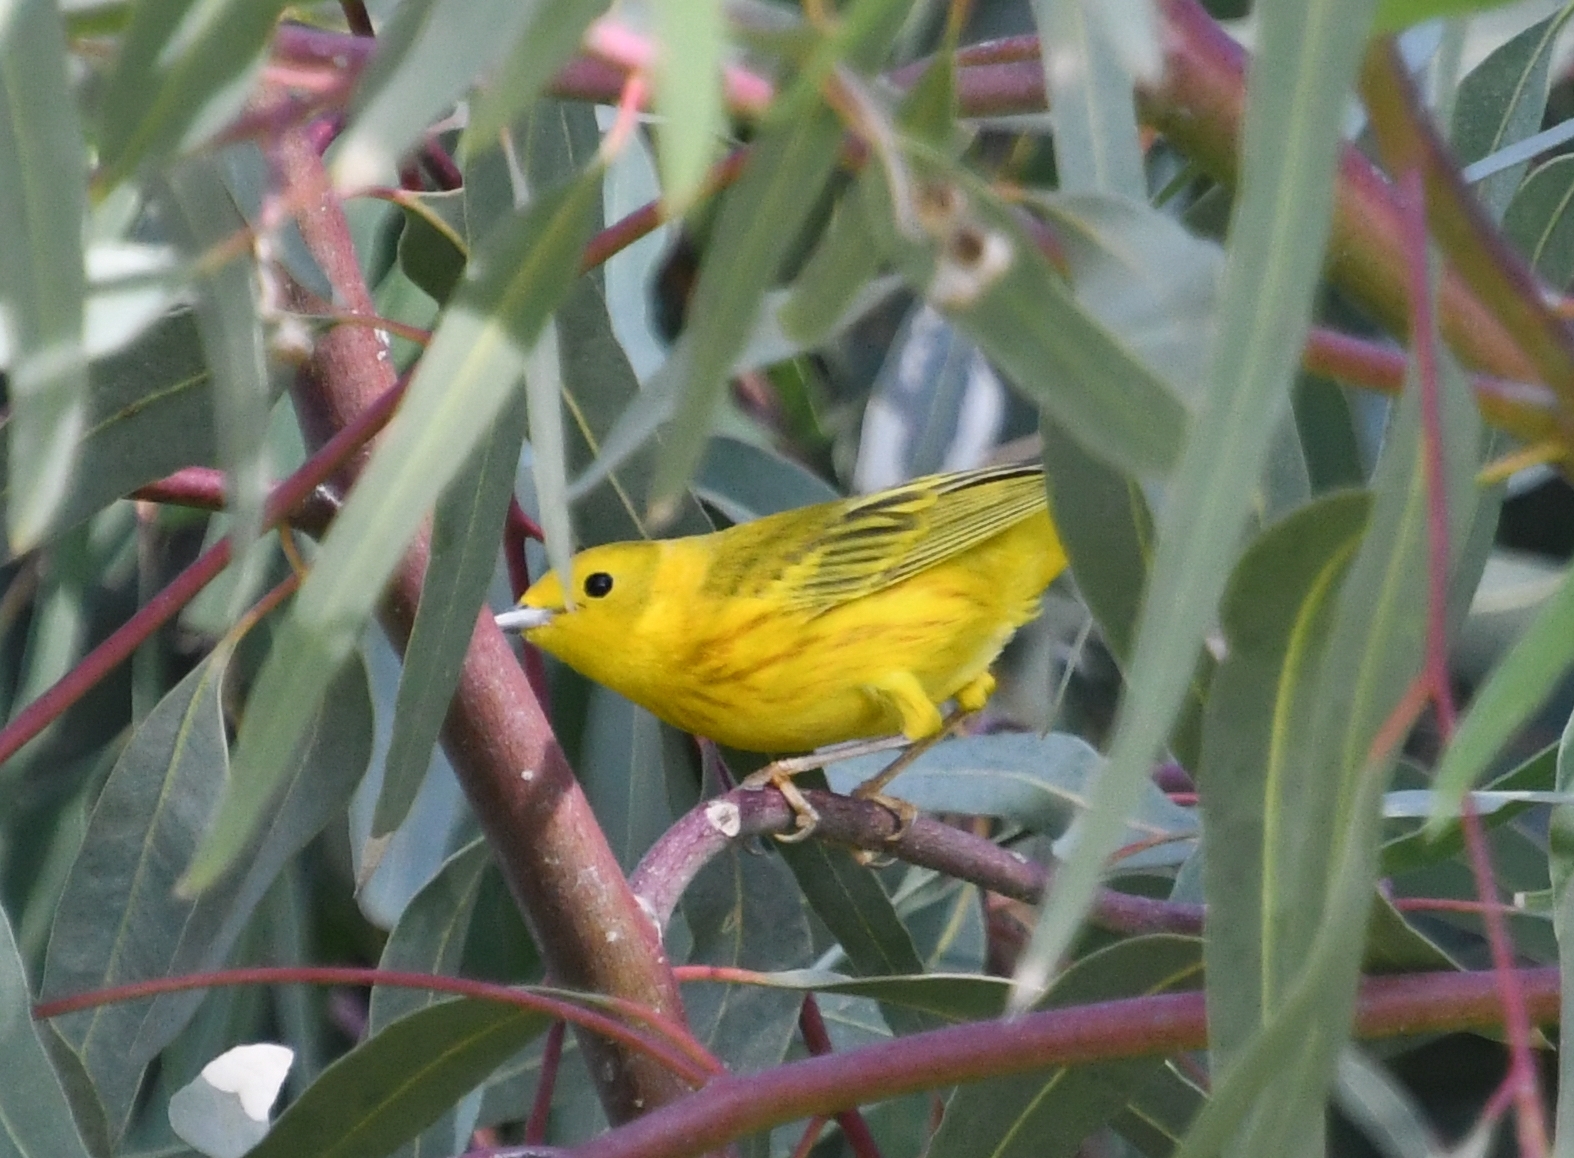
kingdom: Animalia
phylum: Chordata
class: Aves
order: Passeriformes
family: Parulidae
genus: Setophaga
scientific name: Setophaga petechia
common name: Yellow warbler
